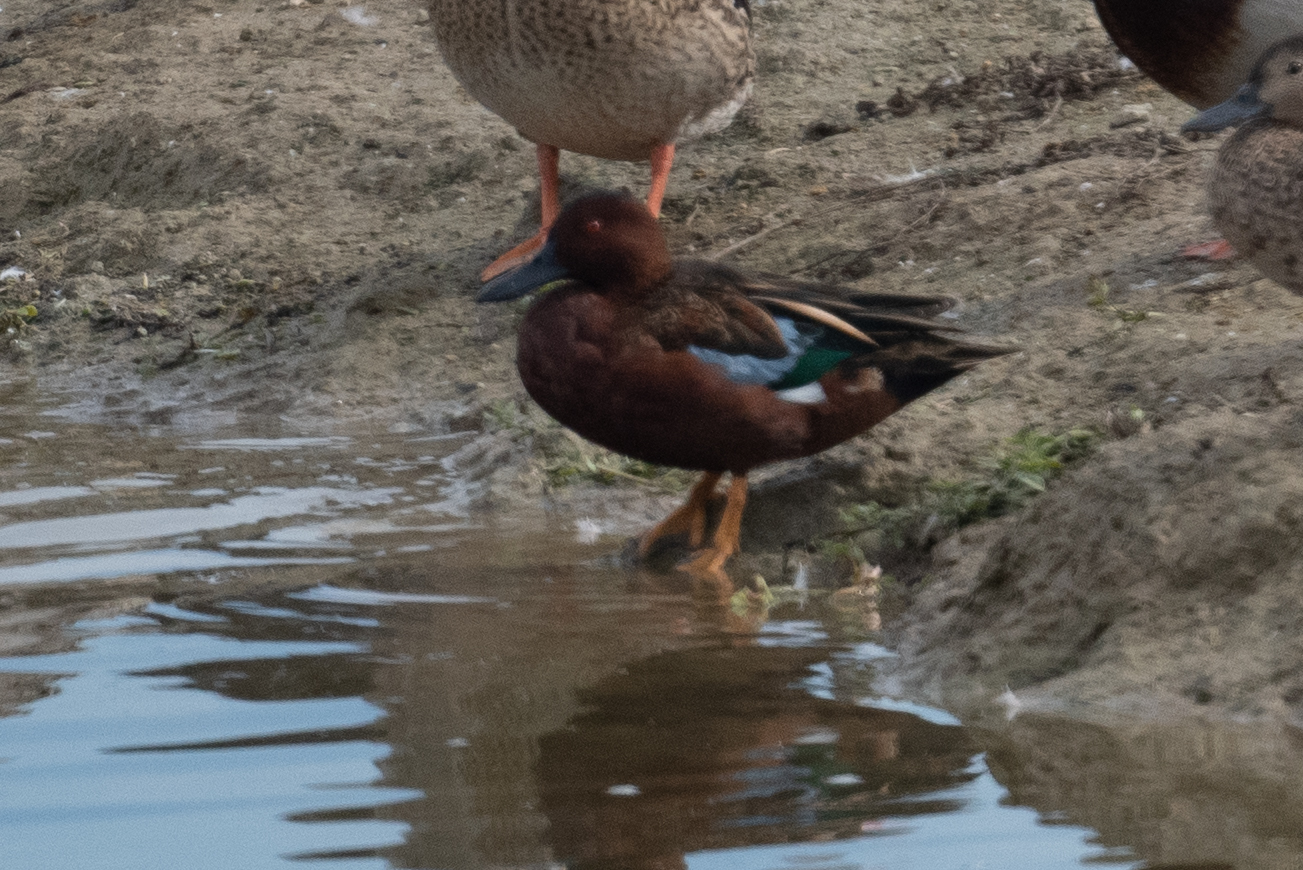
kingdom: Animalia
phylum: Chordata
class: Aves
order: Anseriformes
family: Anatidae
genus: Spatula
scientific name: Spatula cyanoptera
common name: Cinnamon teal
